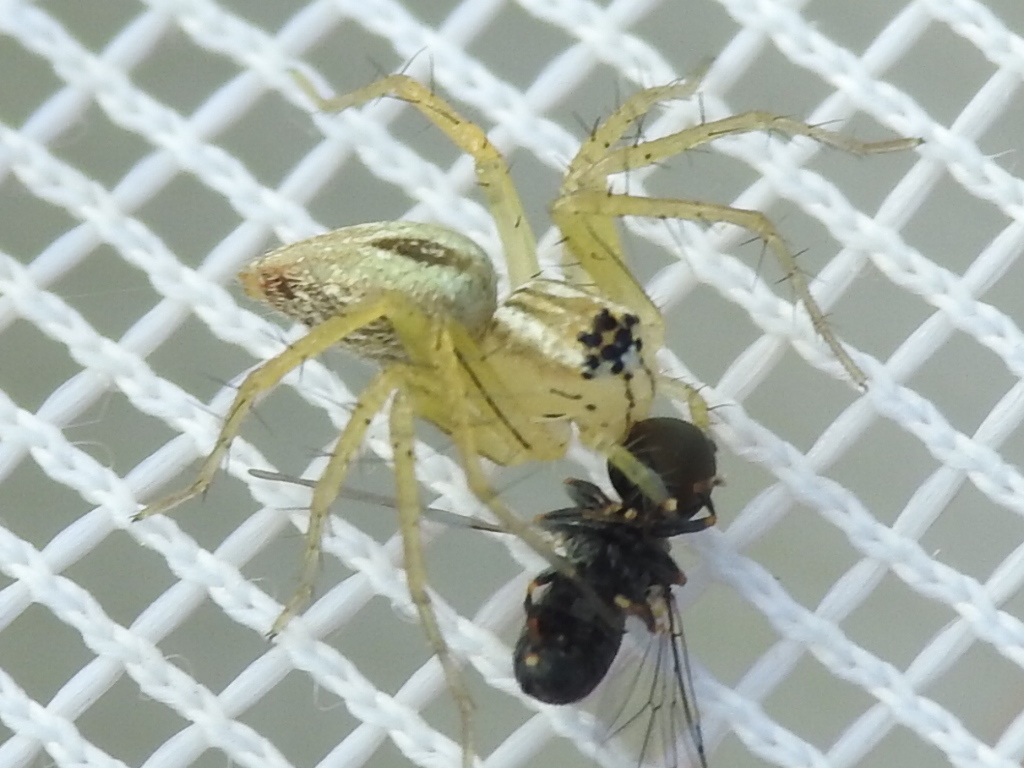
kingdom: Animalia
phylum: Arthropoda
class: Arachnida
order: Araneae
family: Oxyopidae
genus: Oxyopes
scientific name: Oxyopes salticus
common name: Lynx spiders
